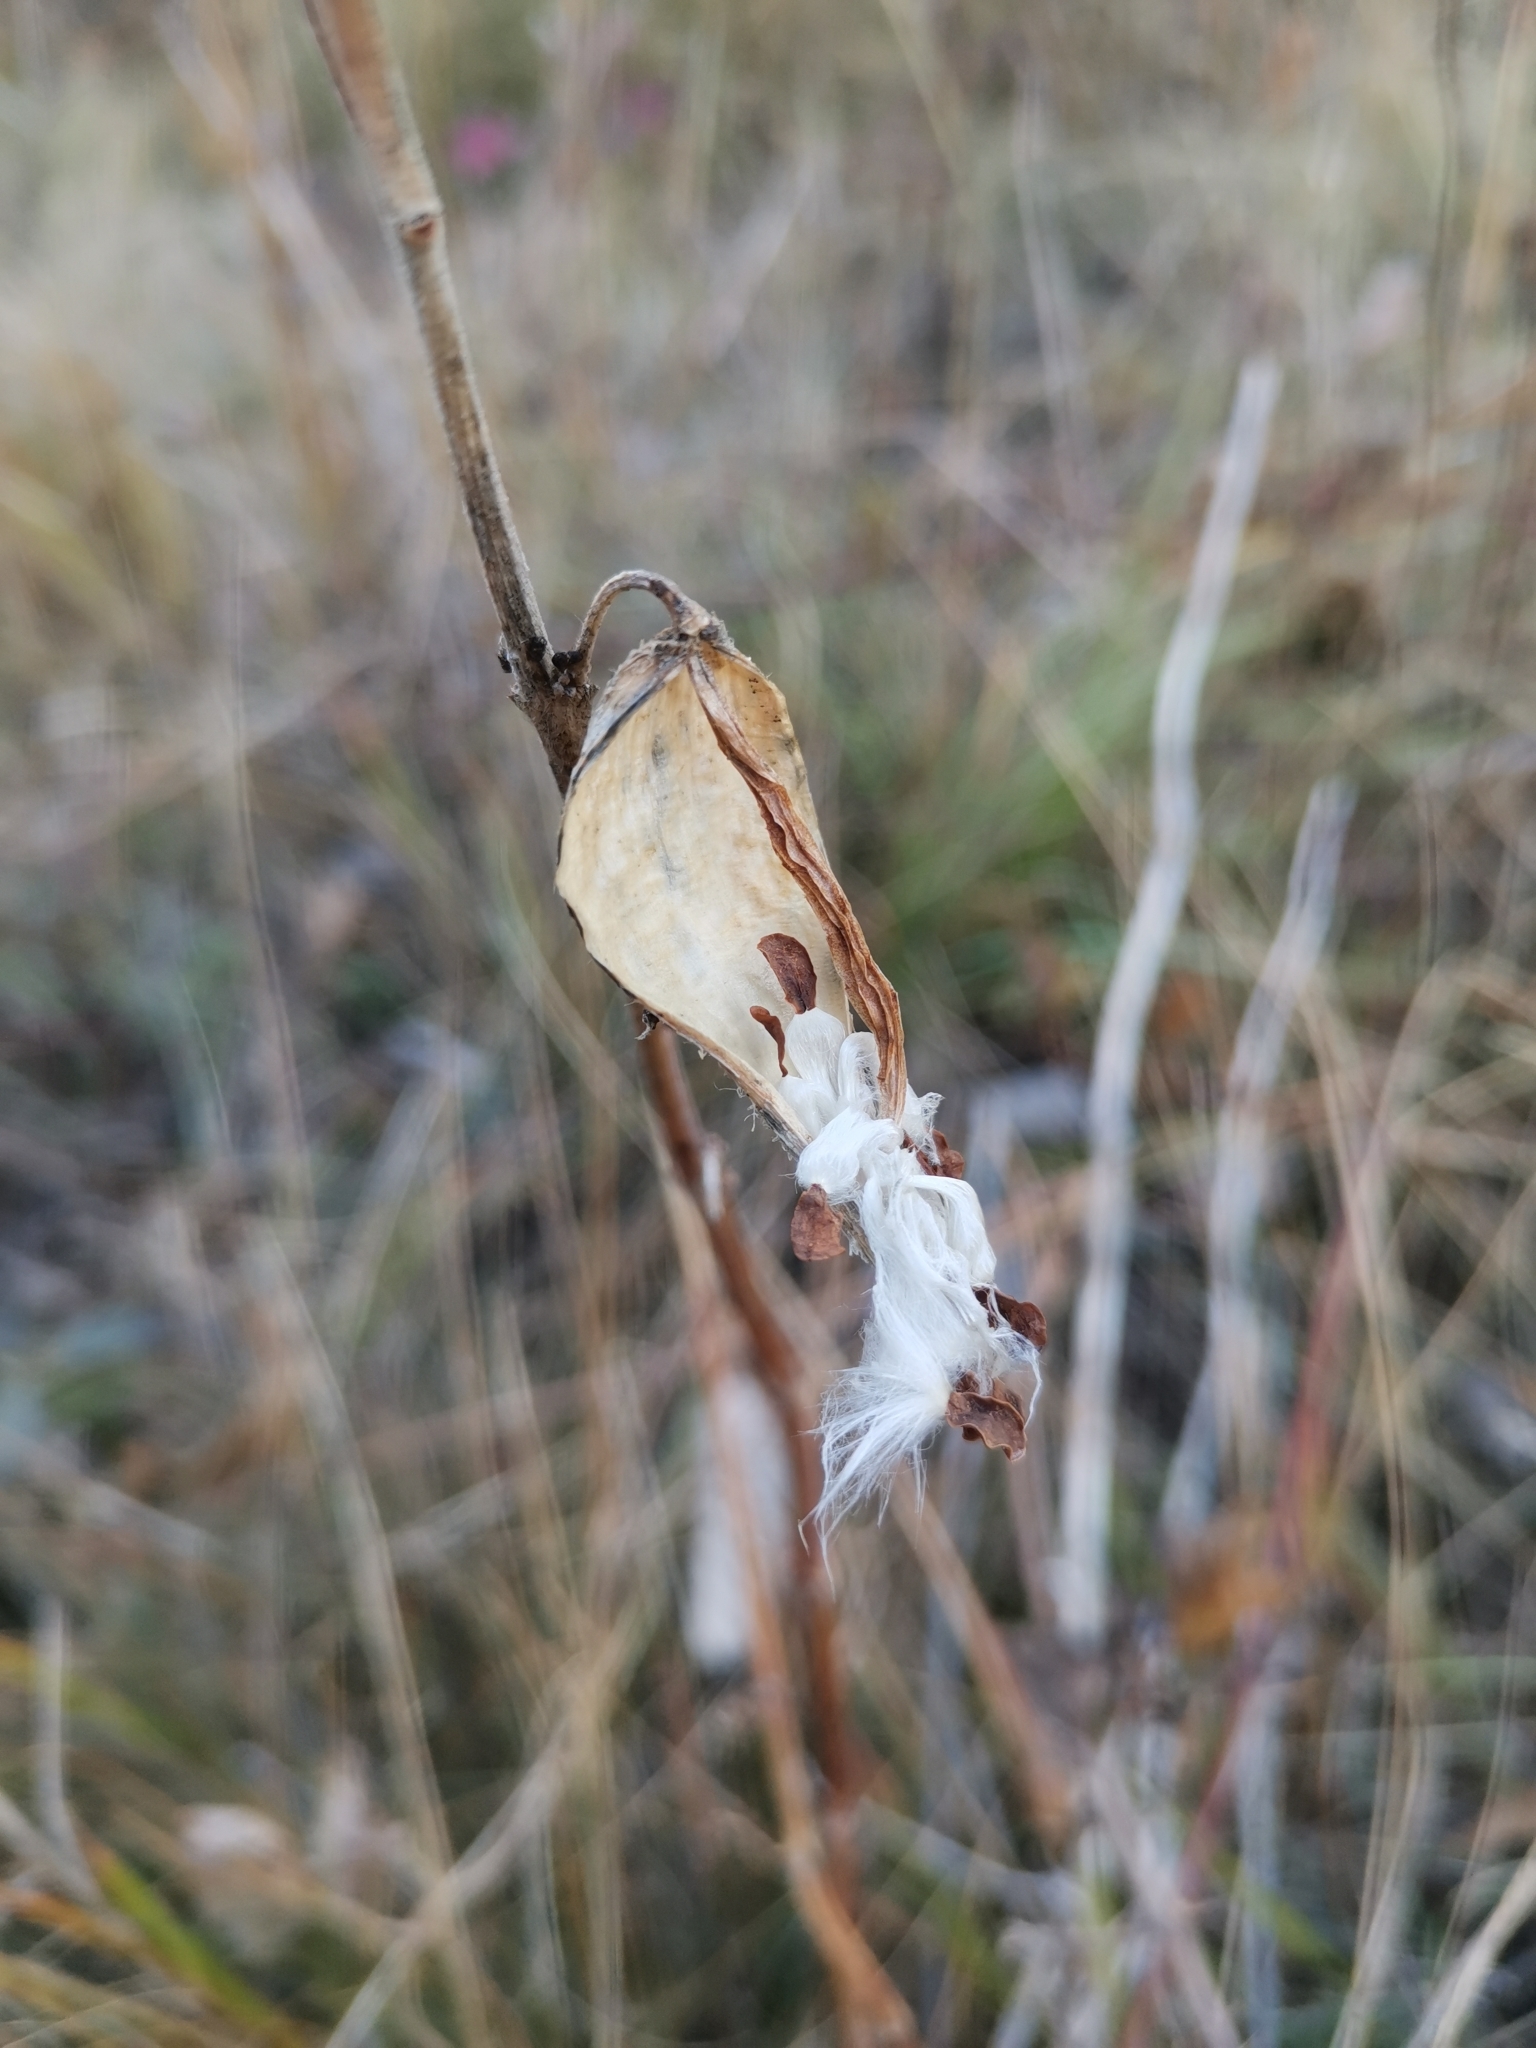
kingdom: Plantae
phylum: Tracheophyta
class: Magnoliopsida
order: Gentianales
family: Apocynaceae
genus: Vincetoxicum
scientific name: Vincetoxicum hirundinaria
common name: White swallowwort
